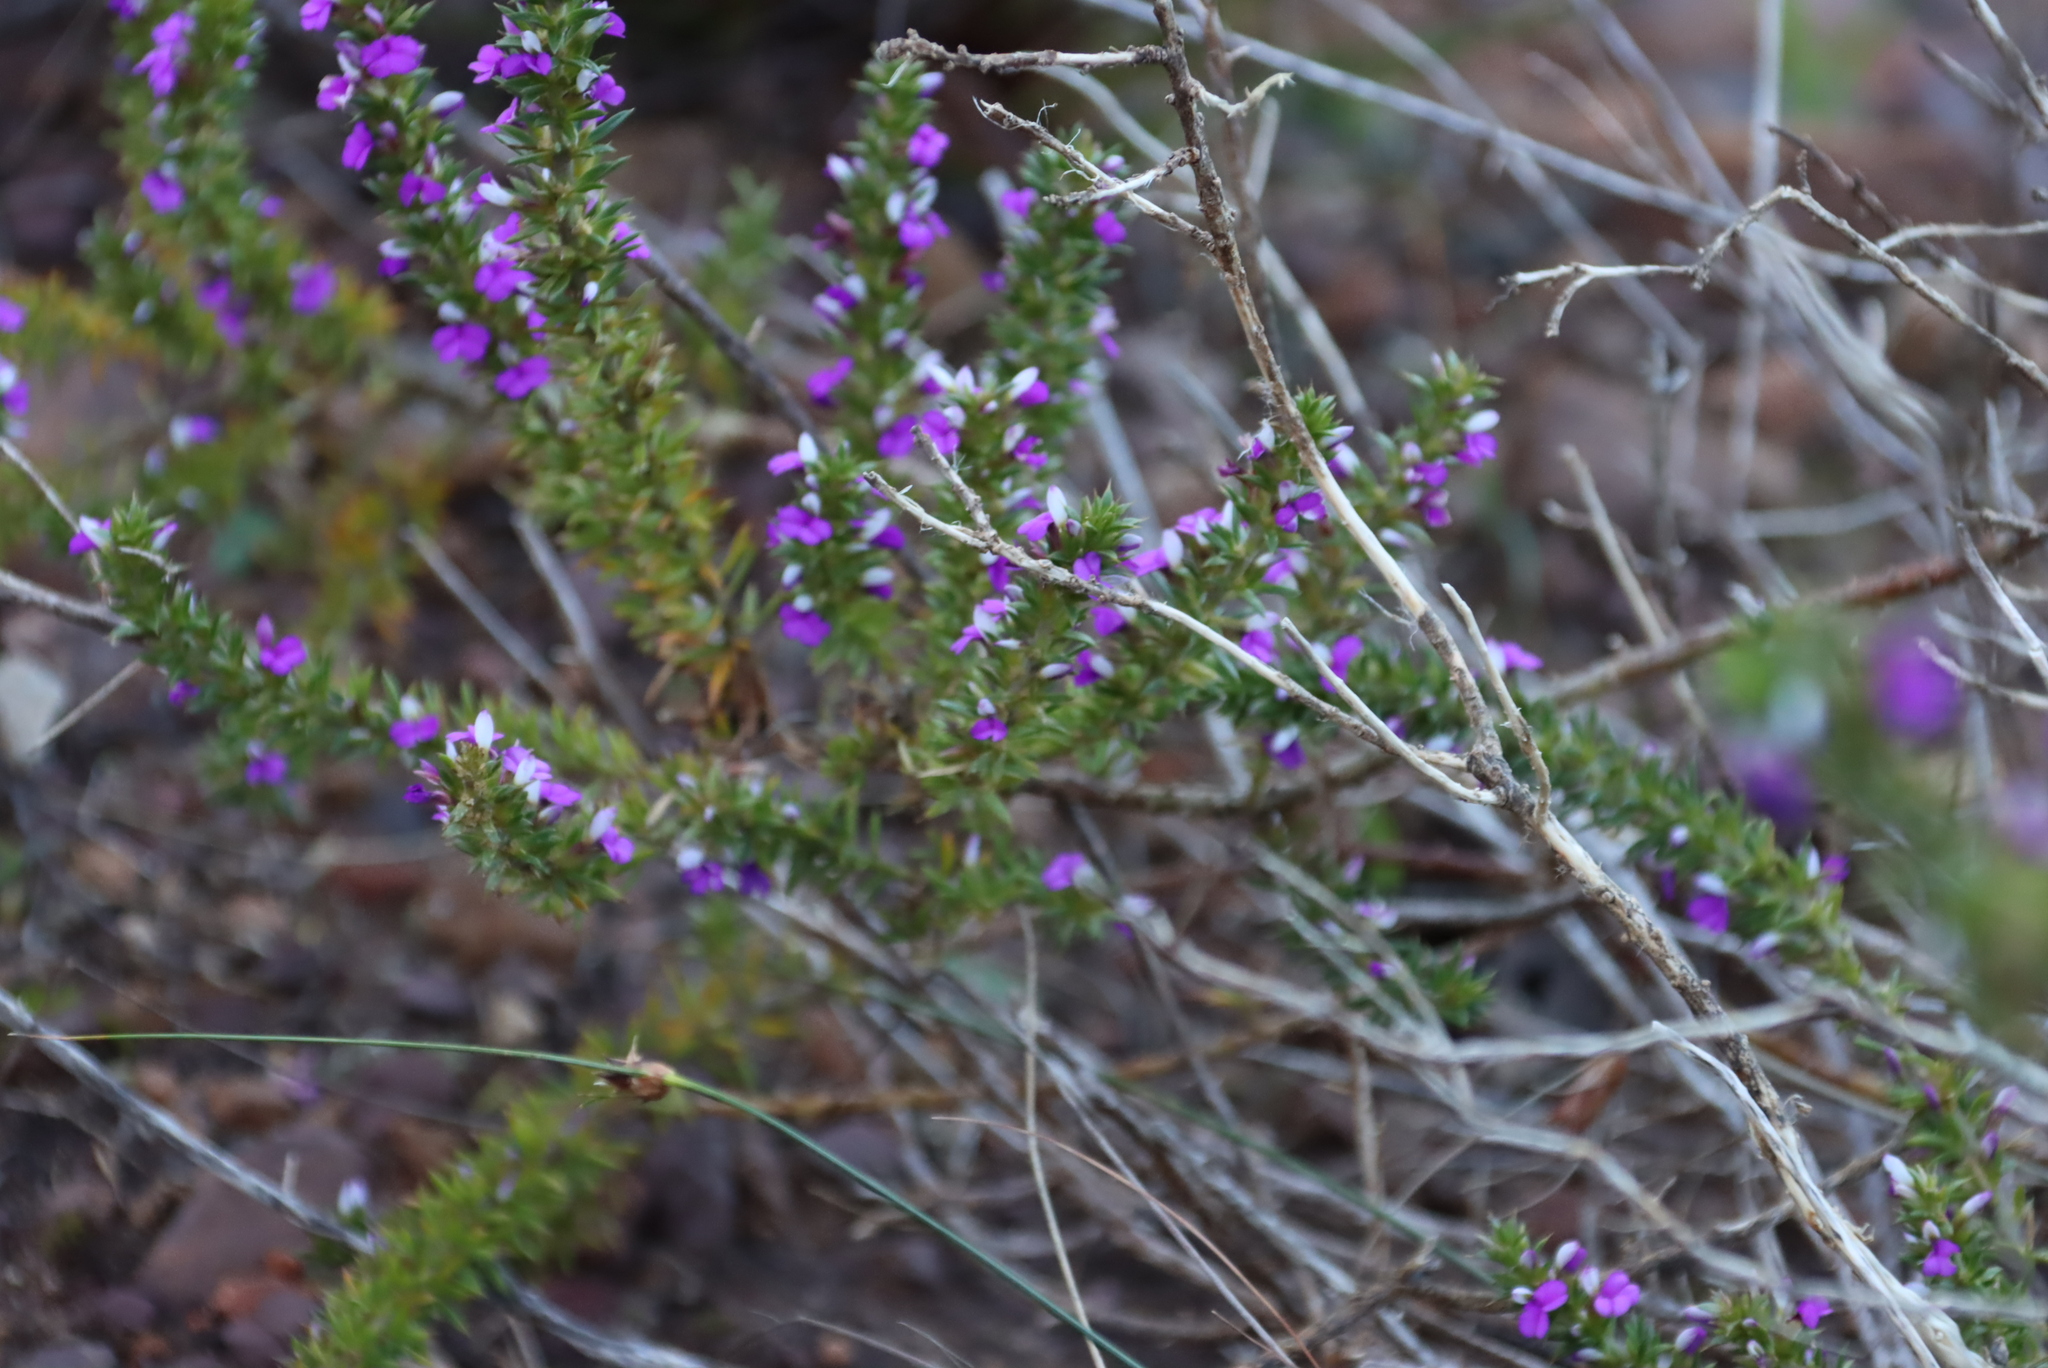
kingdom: Plantae
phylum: Tracheophyta
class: Magnoliopsida
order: Fabales
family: Polygalaceae
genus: Muraltia
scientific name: Muraltia heisteria
